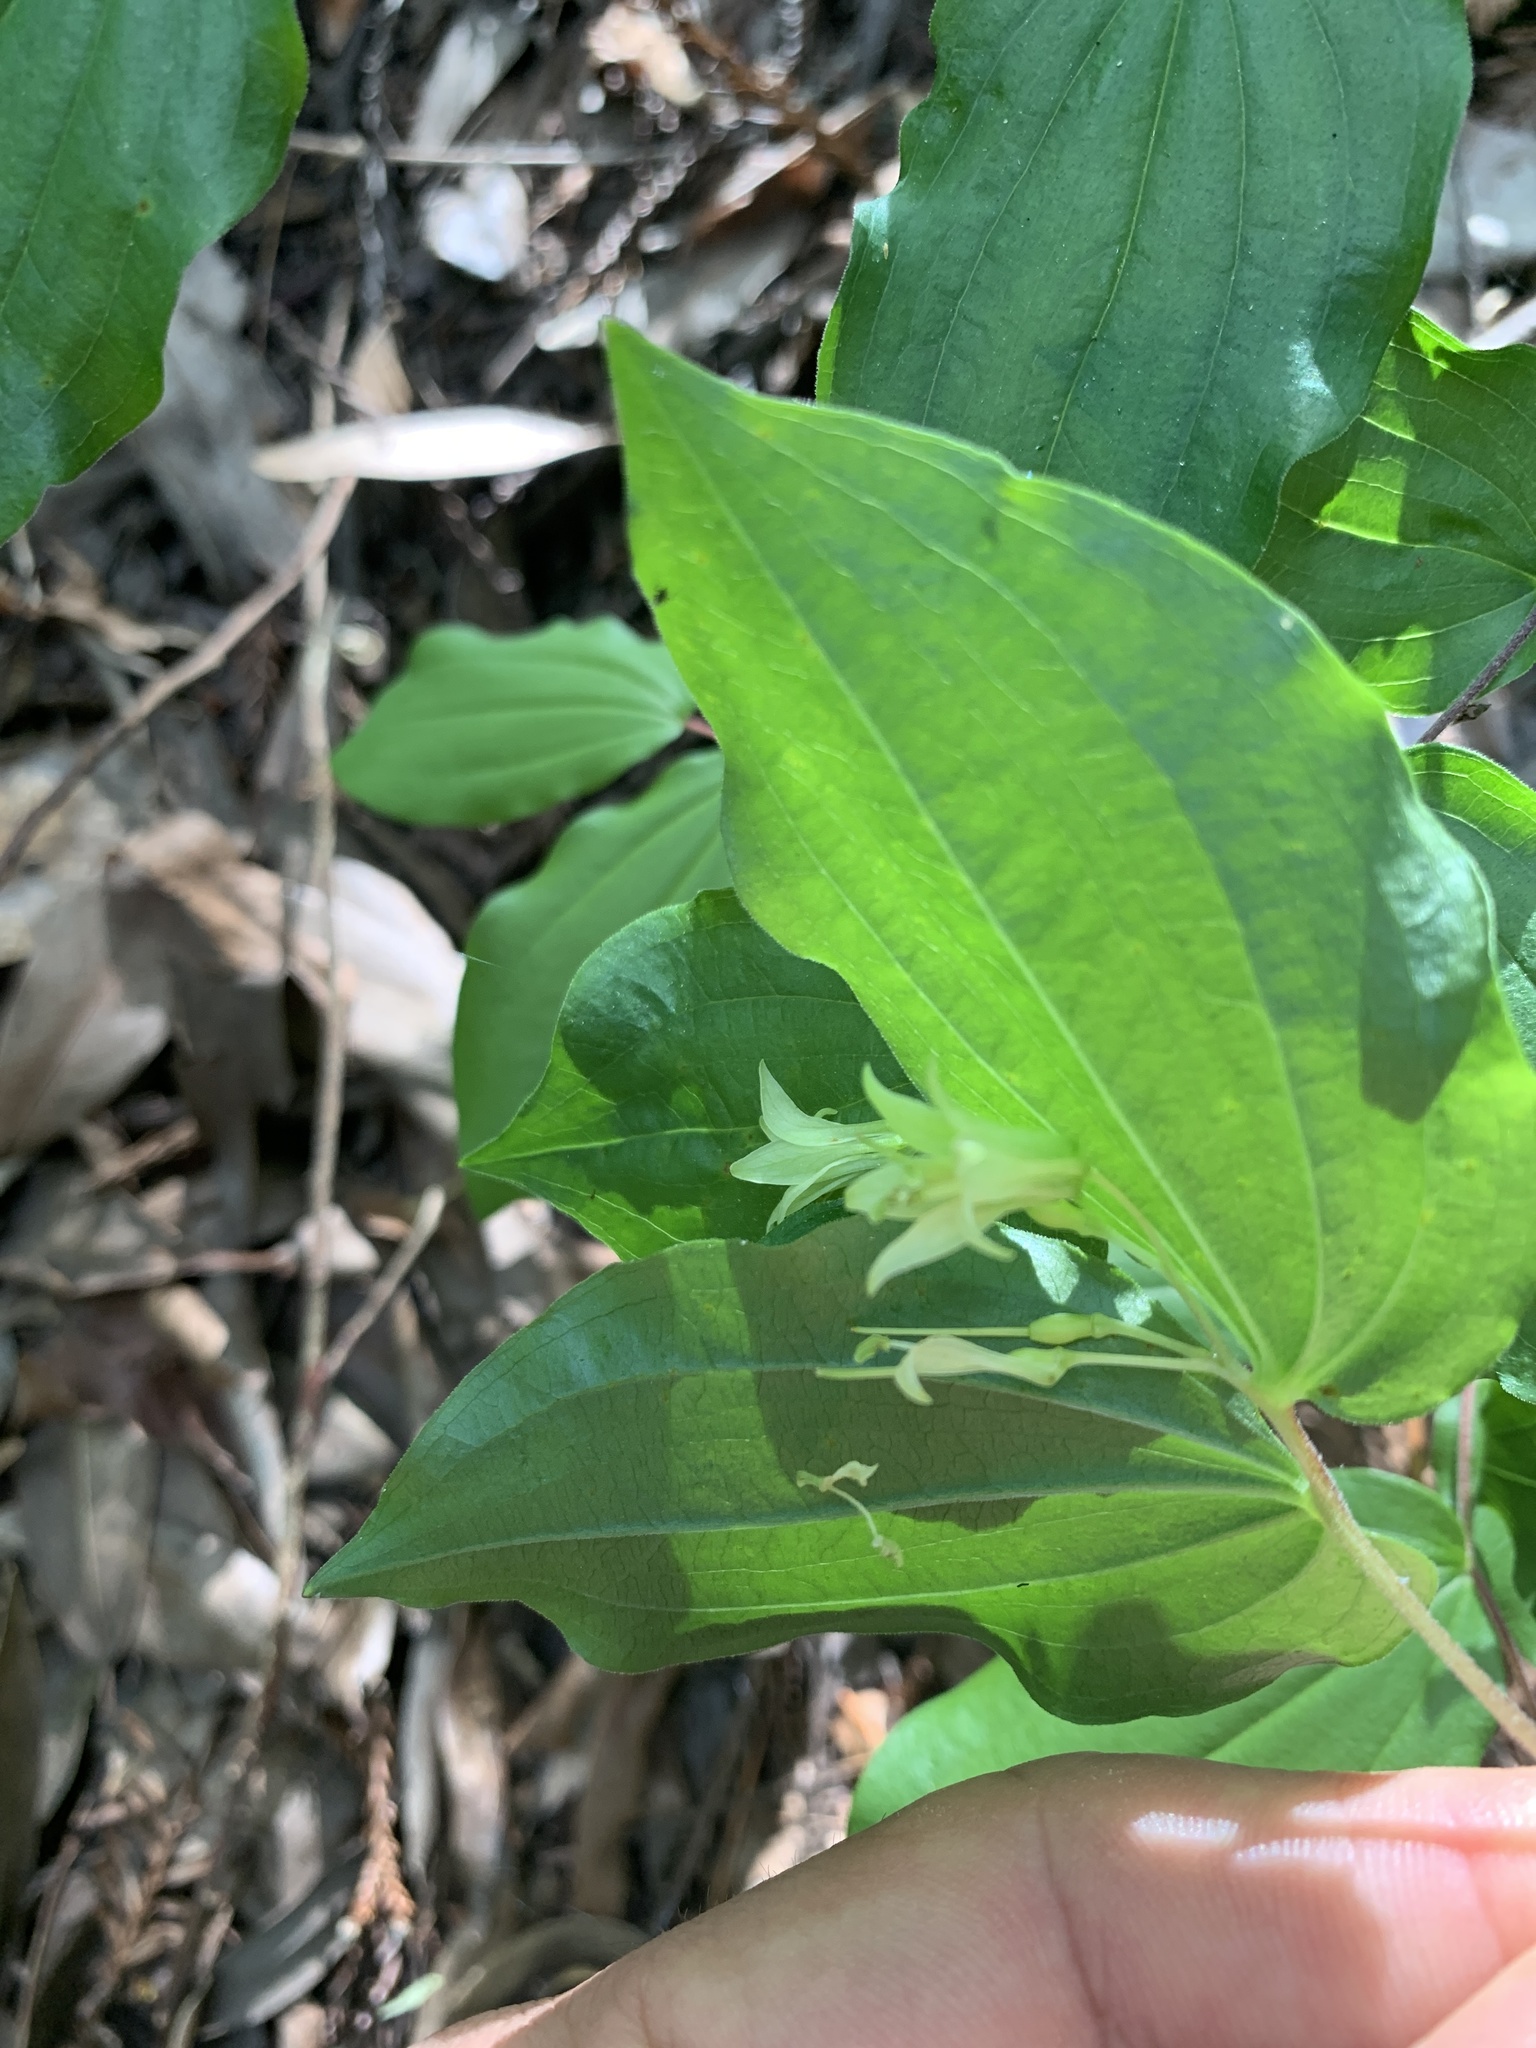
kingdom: Plantae
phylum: Tracheophyta
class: Liliopsida
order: Liliales
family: Liliaceae
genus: Prosartes
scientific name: Prosartes hookeri
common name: Fairy-bells
